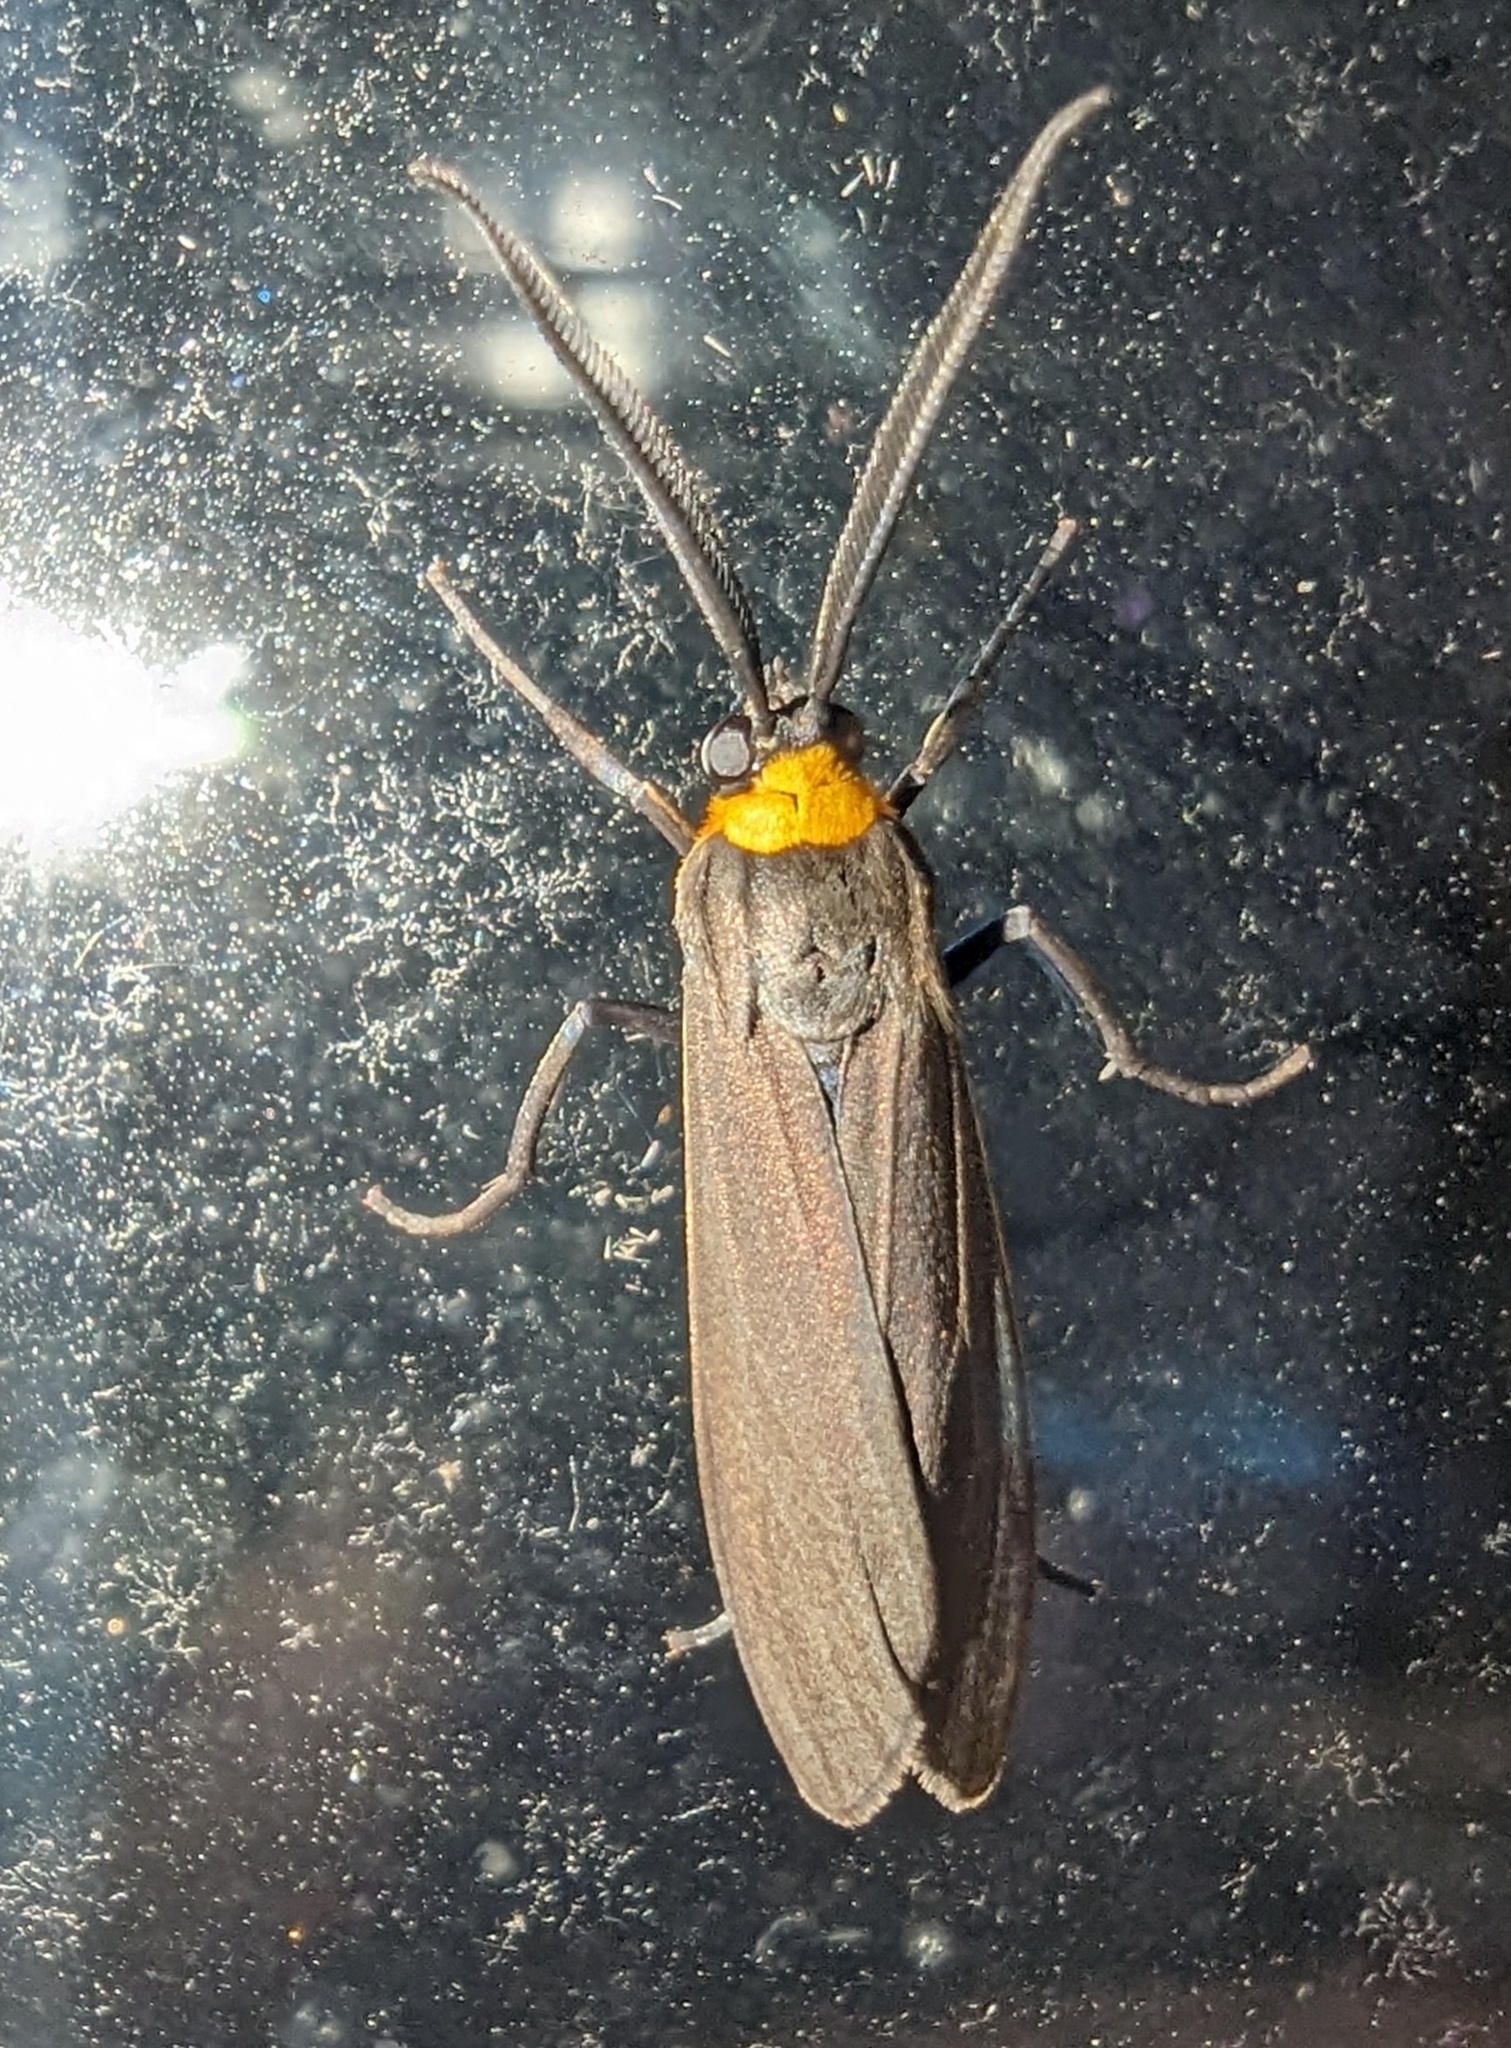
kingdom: Animalia
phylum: Arthropoda
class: Insecta
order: Lepidoptera
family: Erebidae
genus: Cisseps
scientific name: Cisseps fulvicollis
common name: Yellow-collared scape moth
